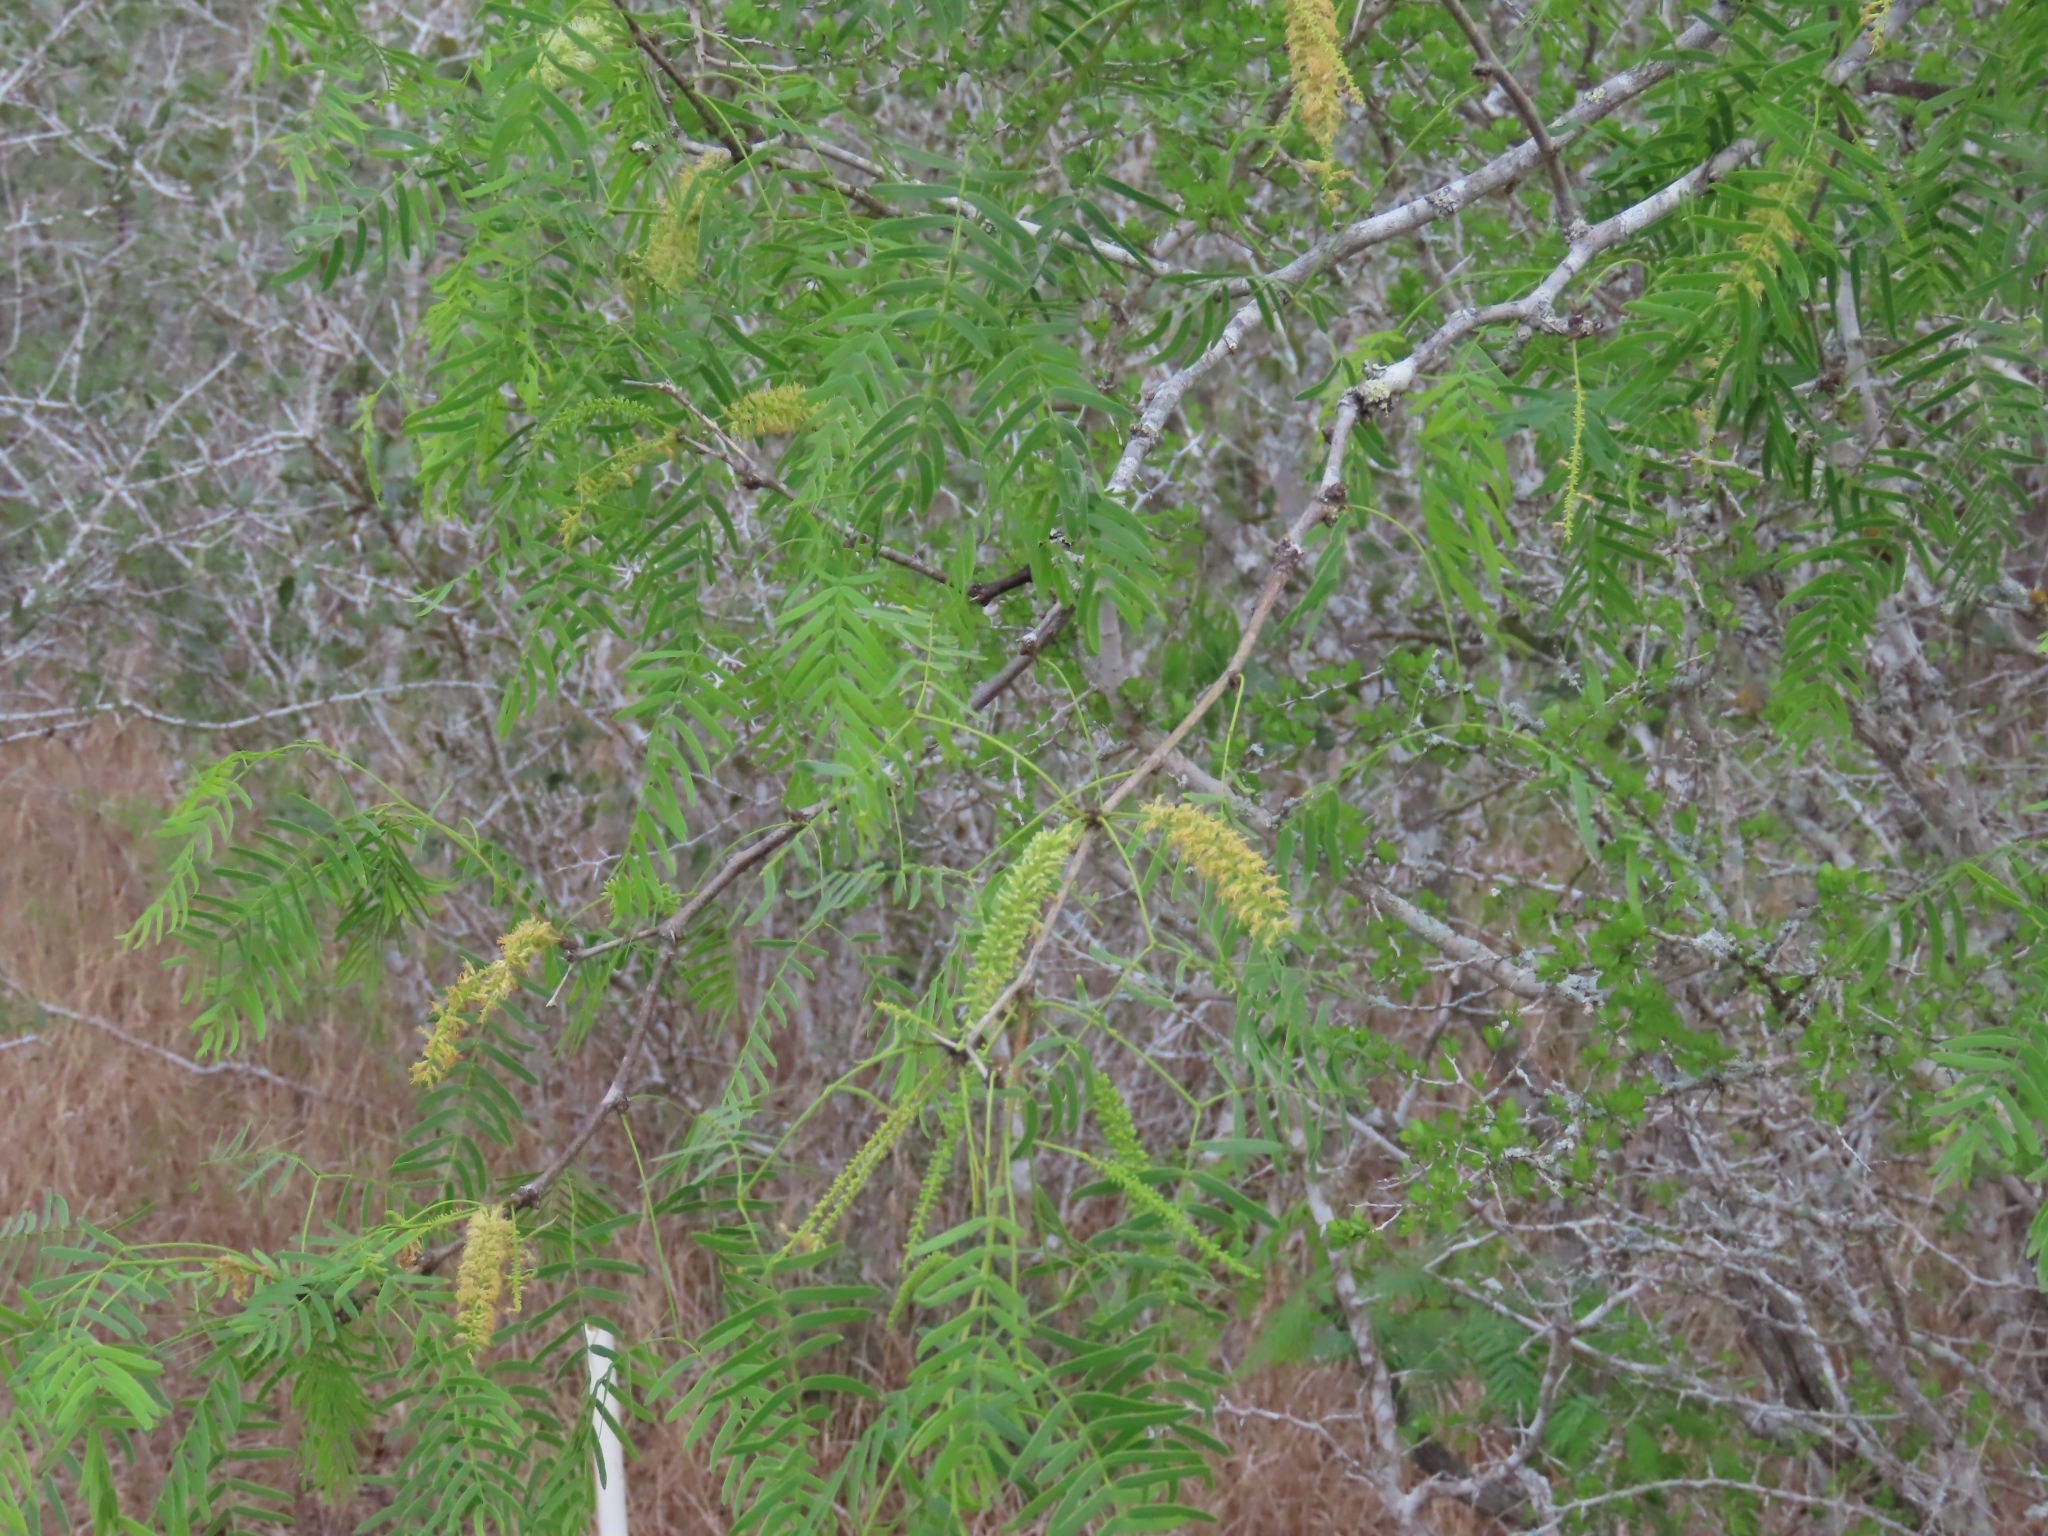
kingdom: Plantae
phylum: Tracheophyta
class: Magnoliopsida
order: Fabales
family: Fabaceae
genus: Prosopis
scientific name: Prosopis glandulosa
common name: Honey mesquite
